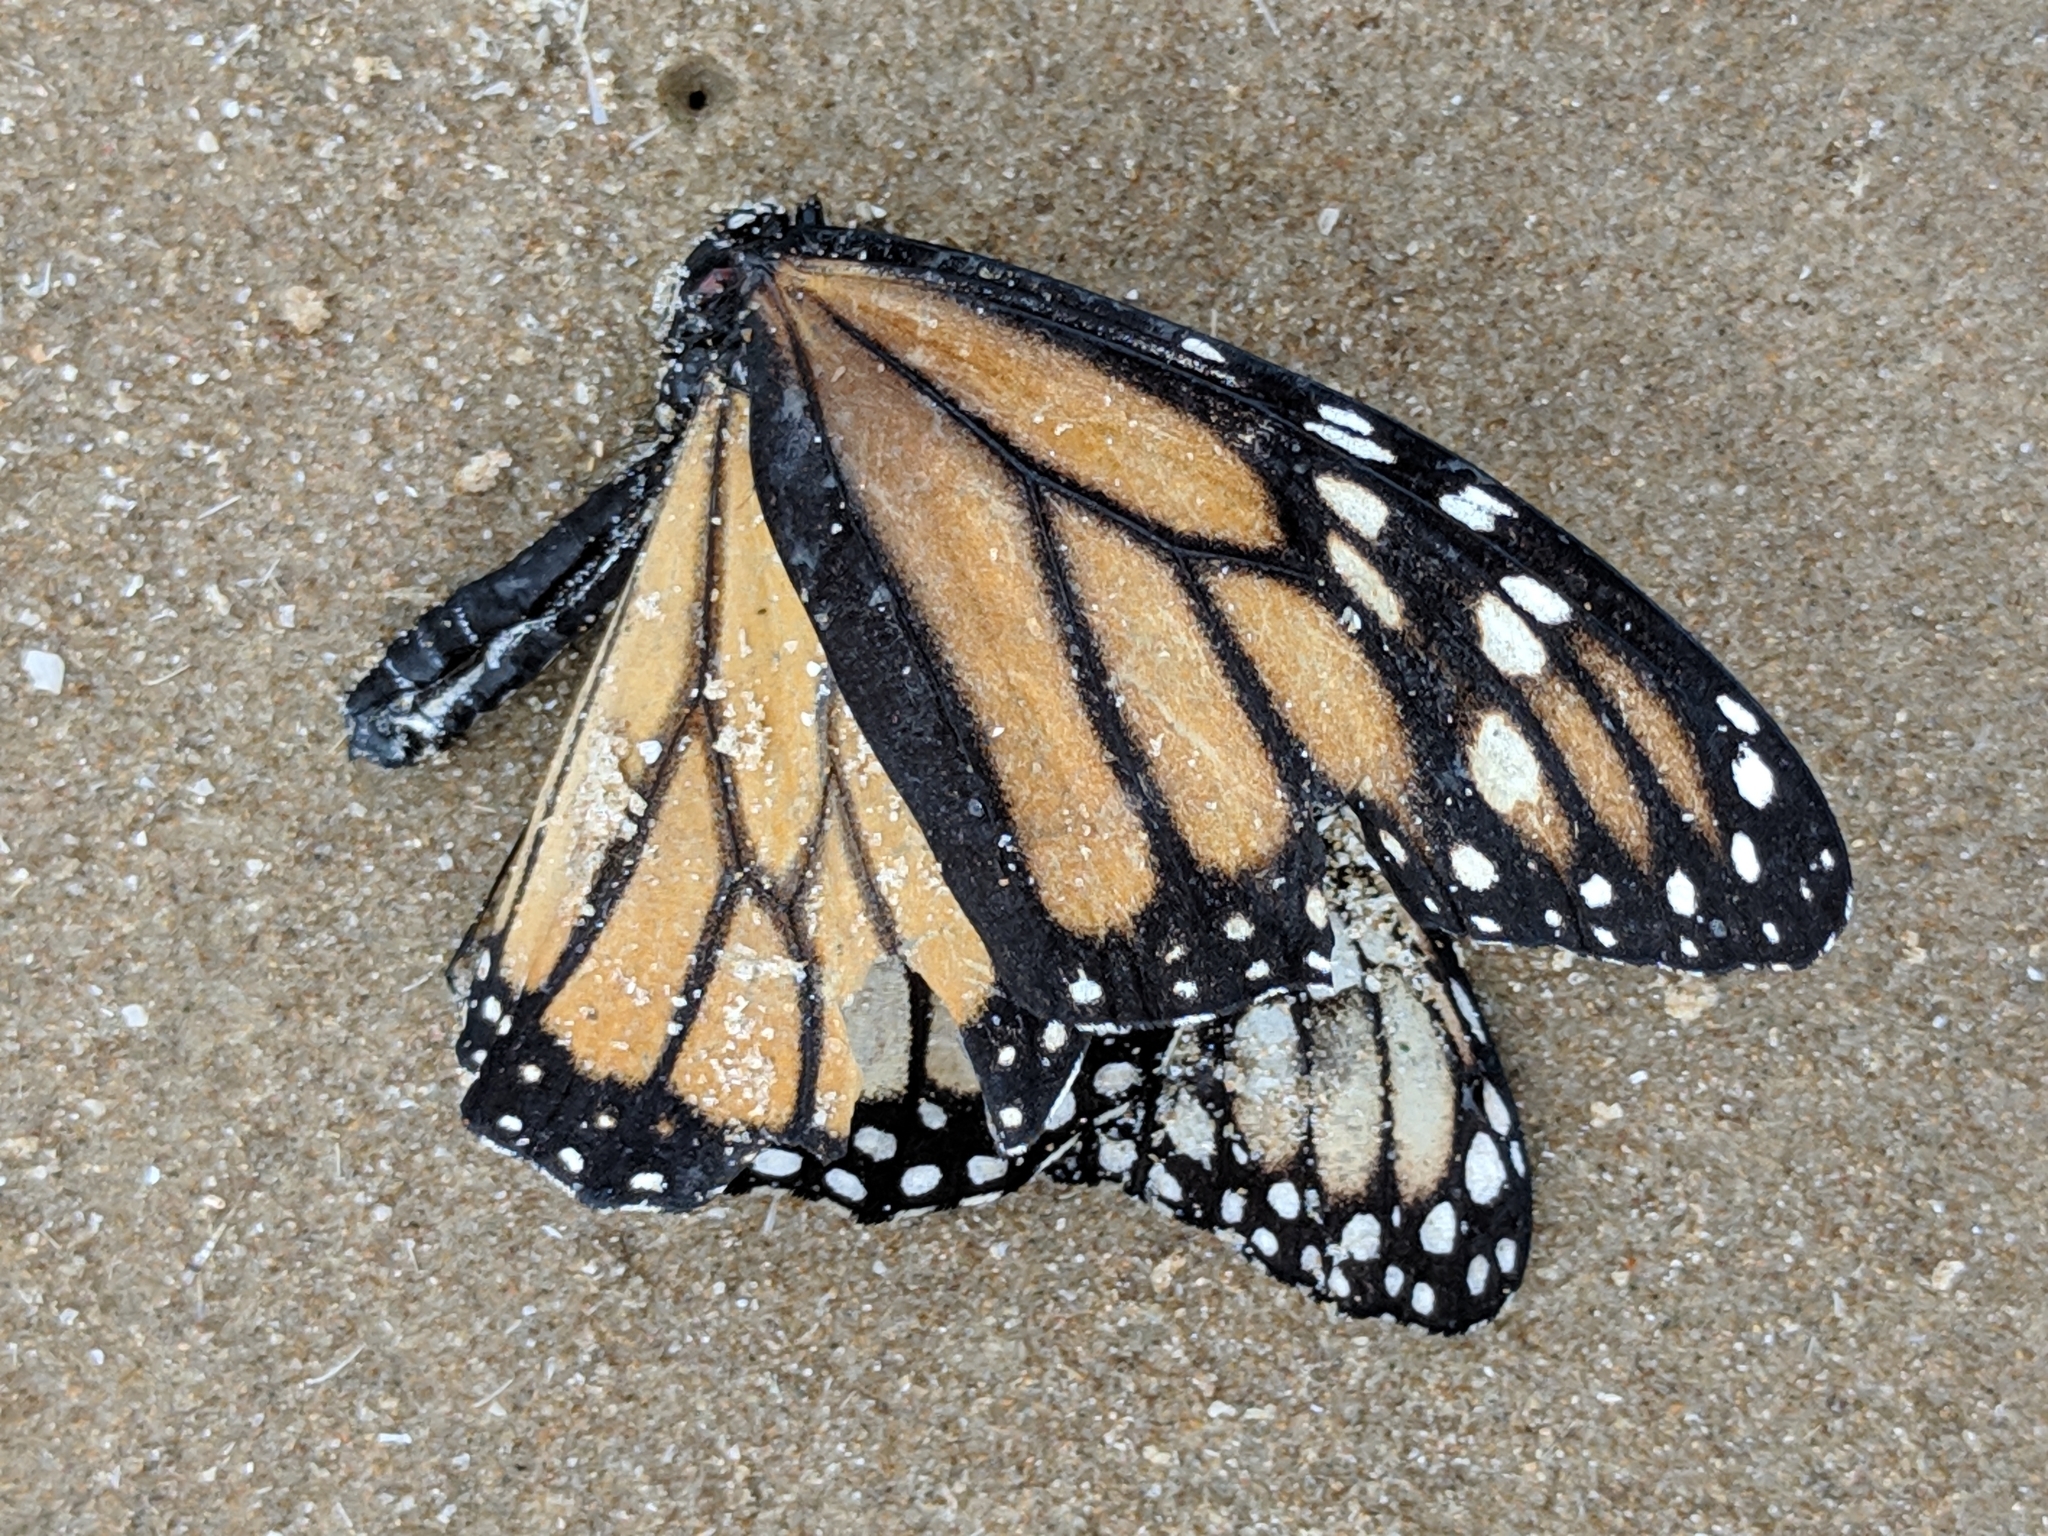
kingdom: Animalia
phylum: Arthropoda
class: Insecta
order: Lepidoptera
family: Nymphalidae
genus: Danaus
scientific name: Danaus plexippus
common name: Monarch
